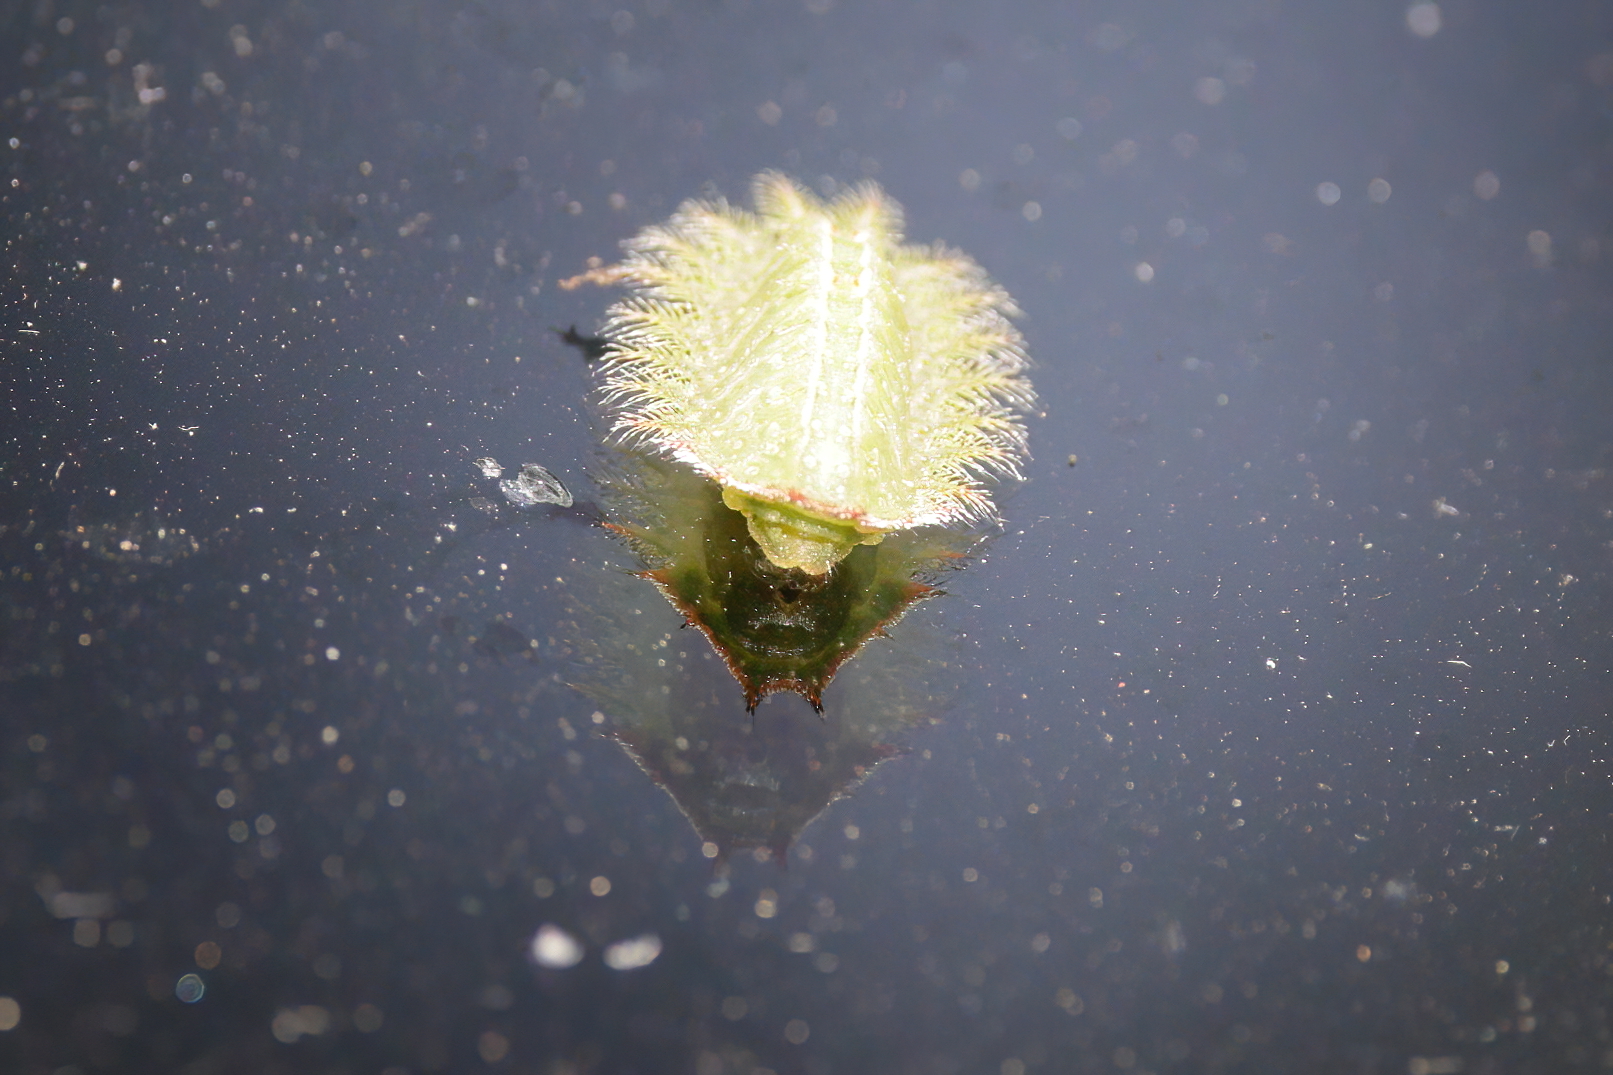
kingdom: Animalia
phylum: Arthropoda
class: Insecta
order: Lepidoptera
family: Limacodidae
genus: Isa
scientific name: Isa textula
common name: Crowned slug moth
